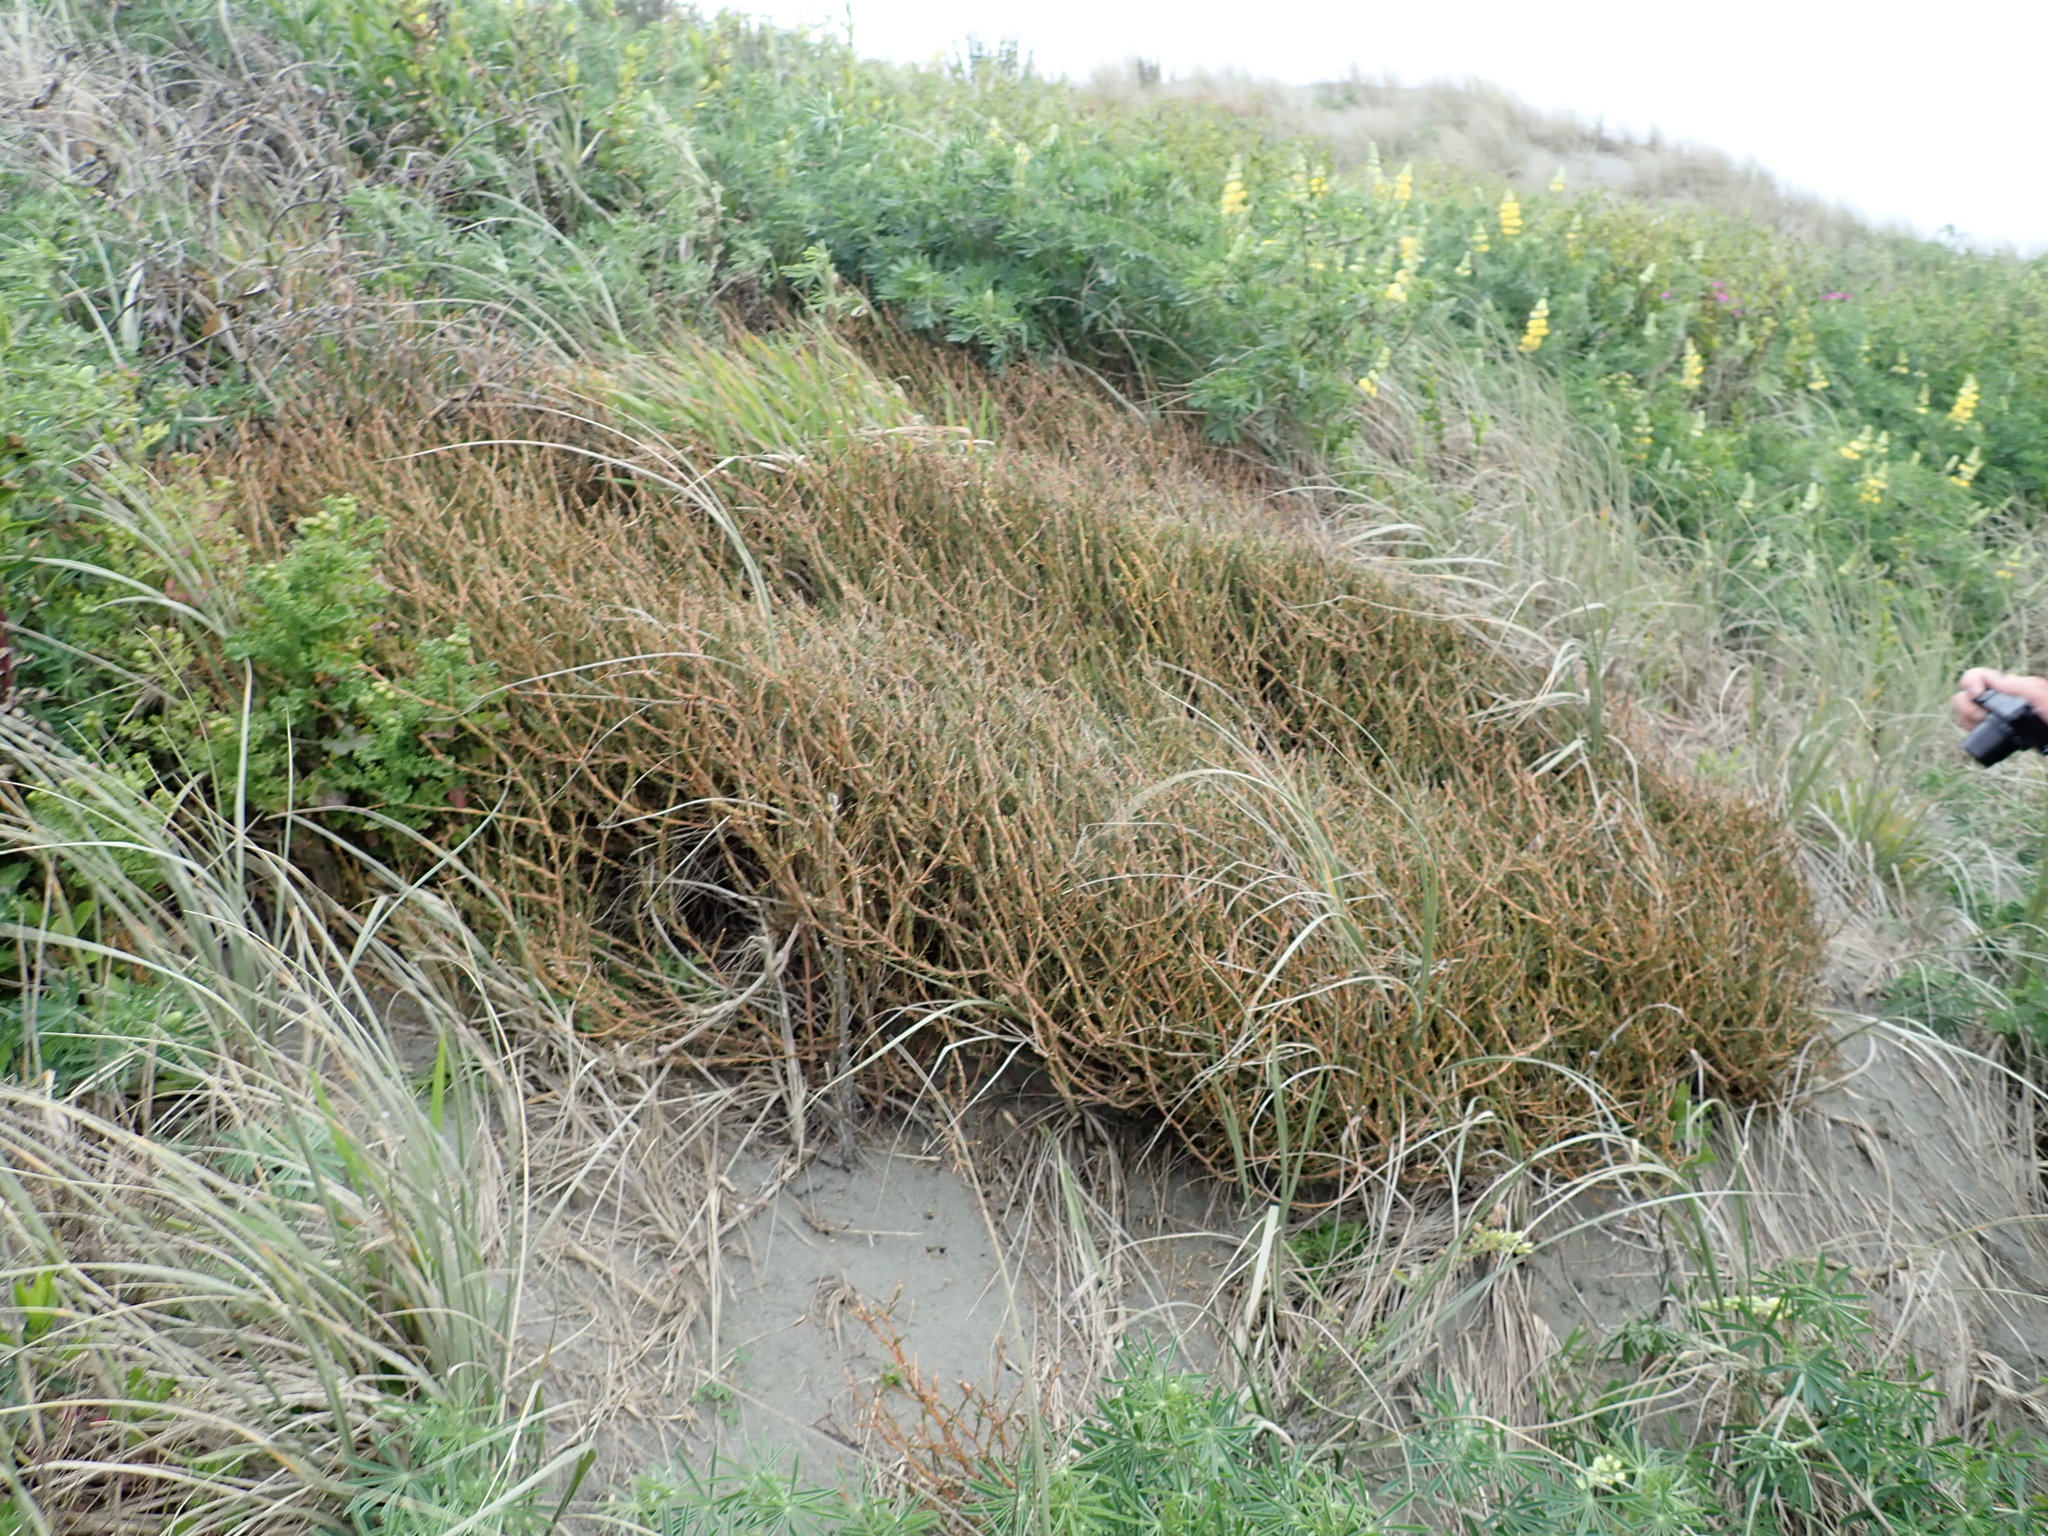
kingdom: Plantae
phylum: Tracheophyta
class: Magnoliopsida
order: Gentianales
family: Rubiaceae
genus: Coprosma
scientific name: Coprosma acerosa
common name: Sand coprosma
